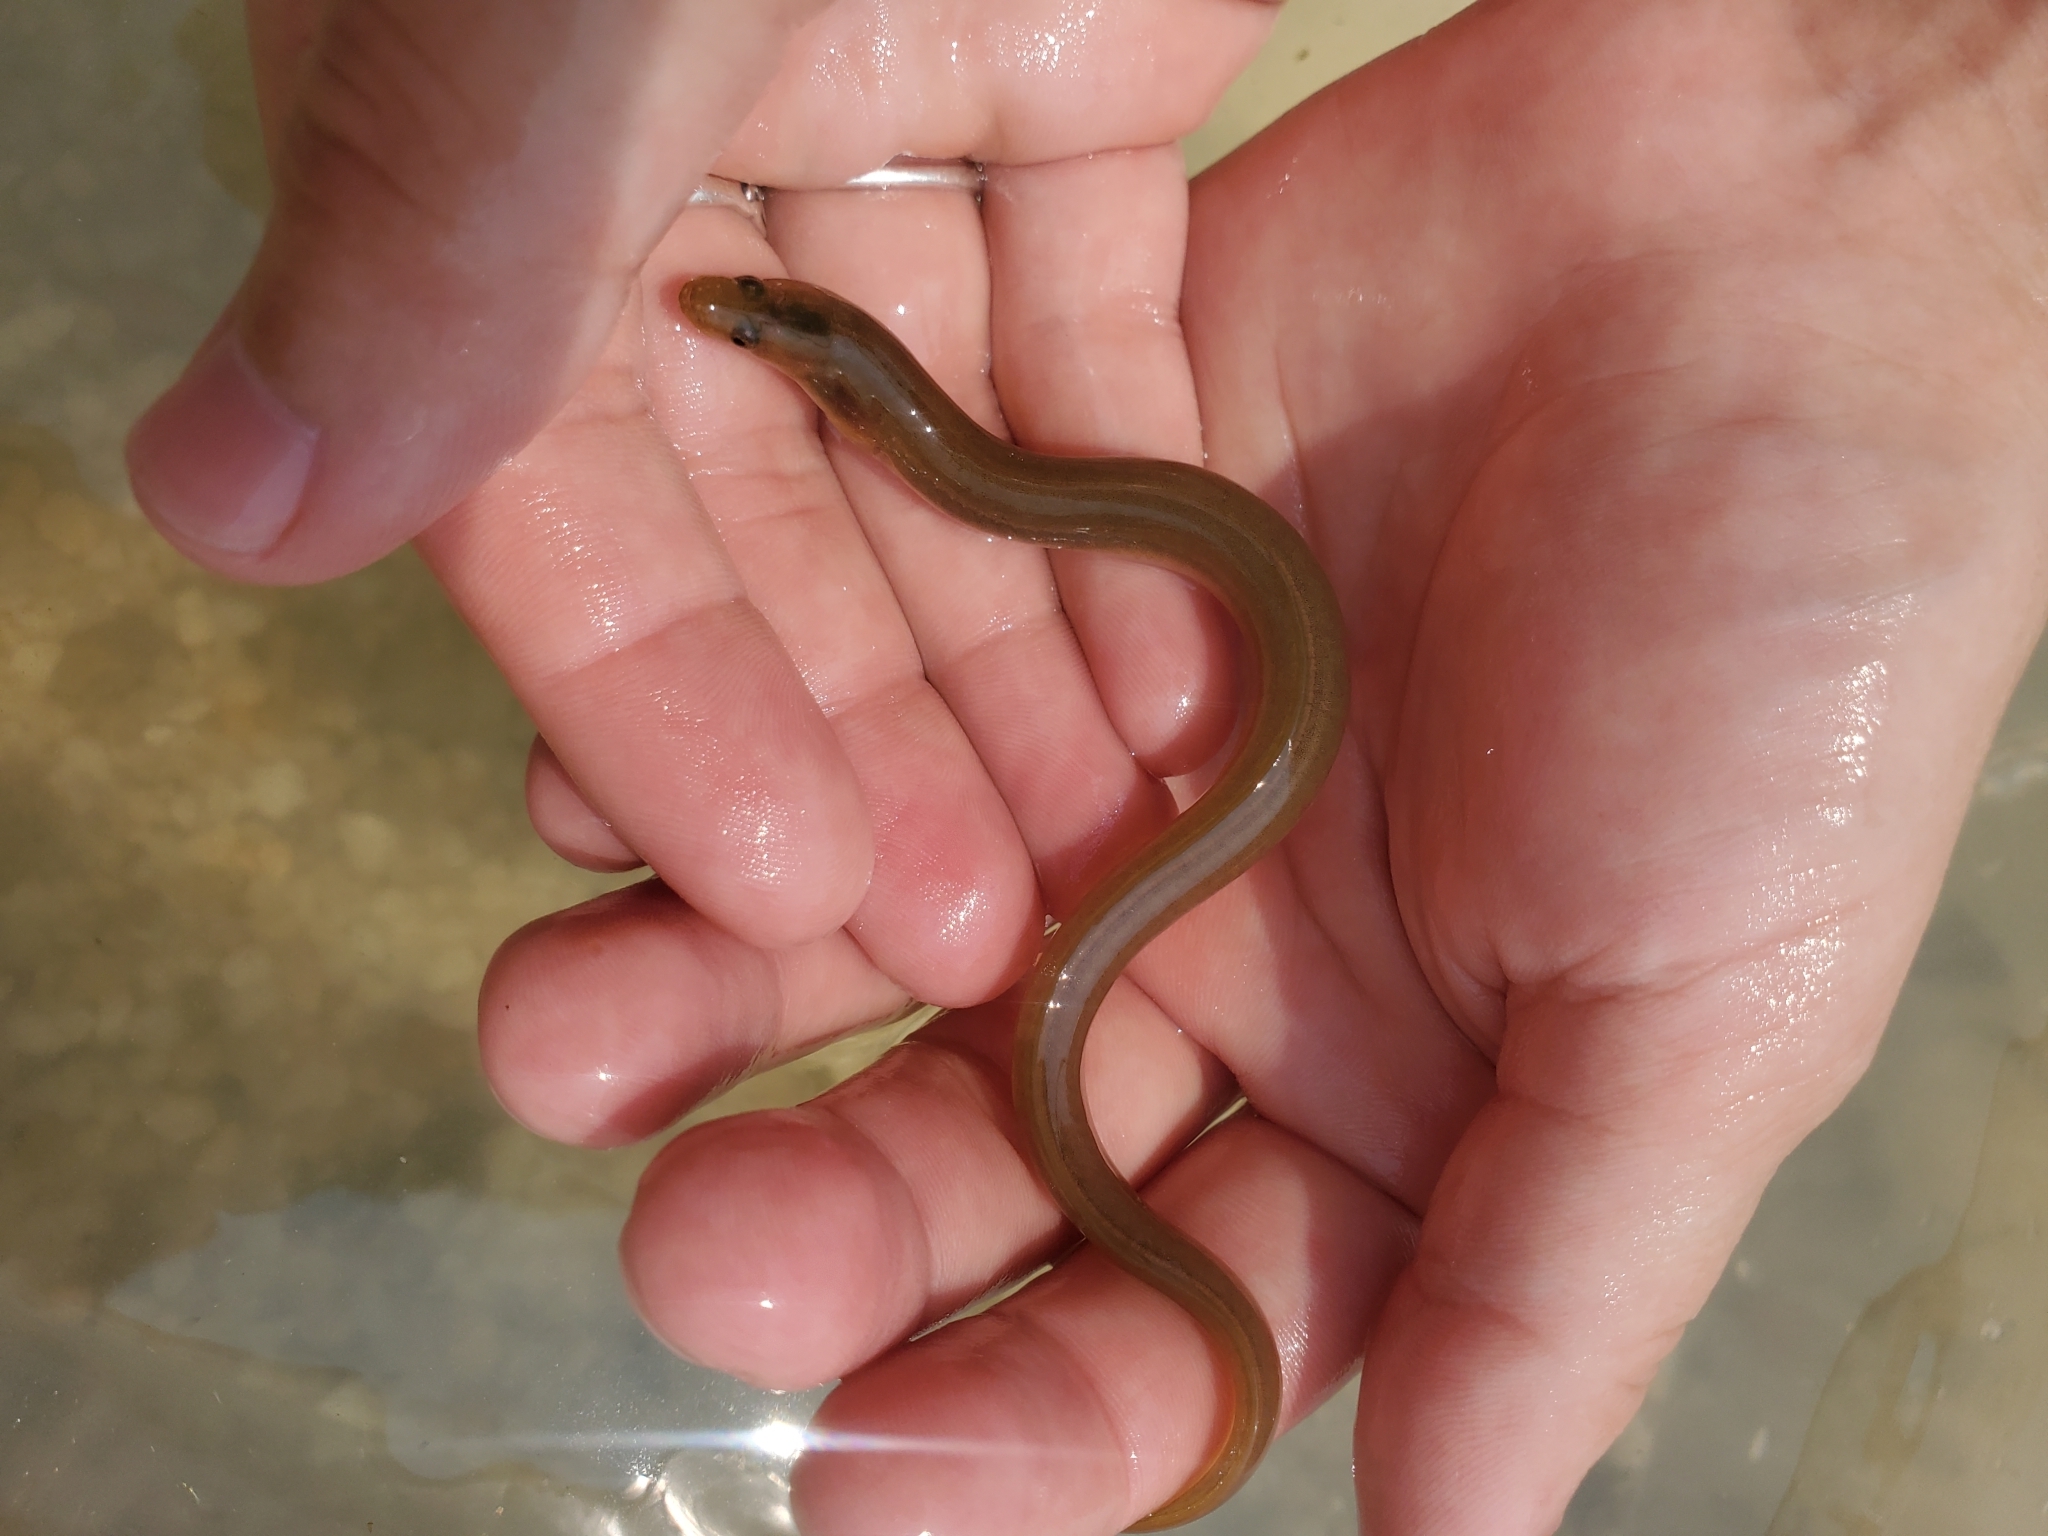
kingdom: Animalia
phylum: Chordata
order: Anguilliformes
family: Anguillidae
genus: Anguilla
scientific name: Anguilla rostrata
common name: American eel
